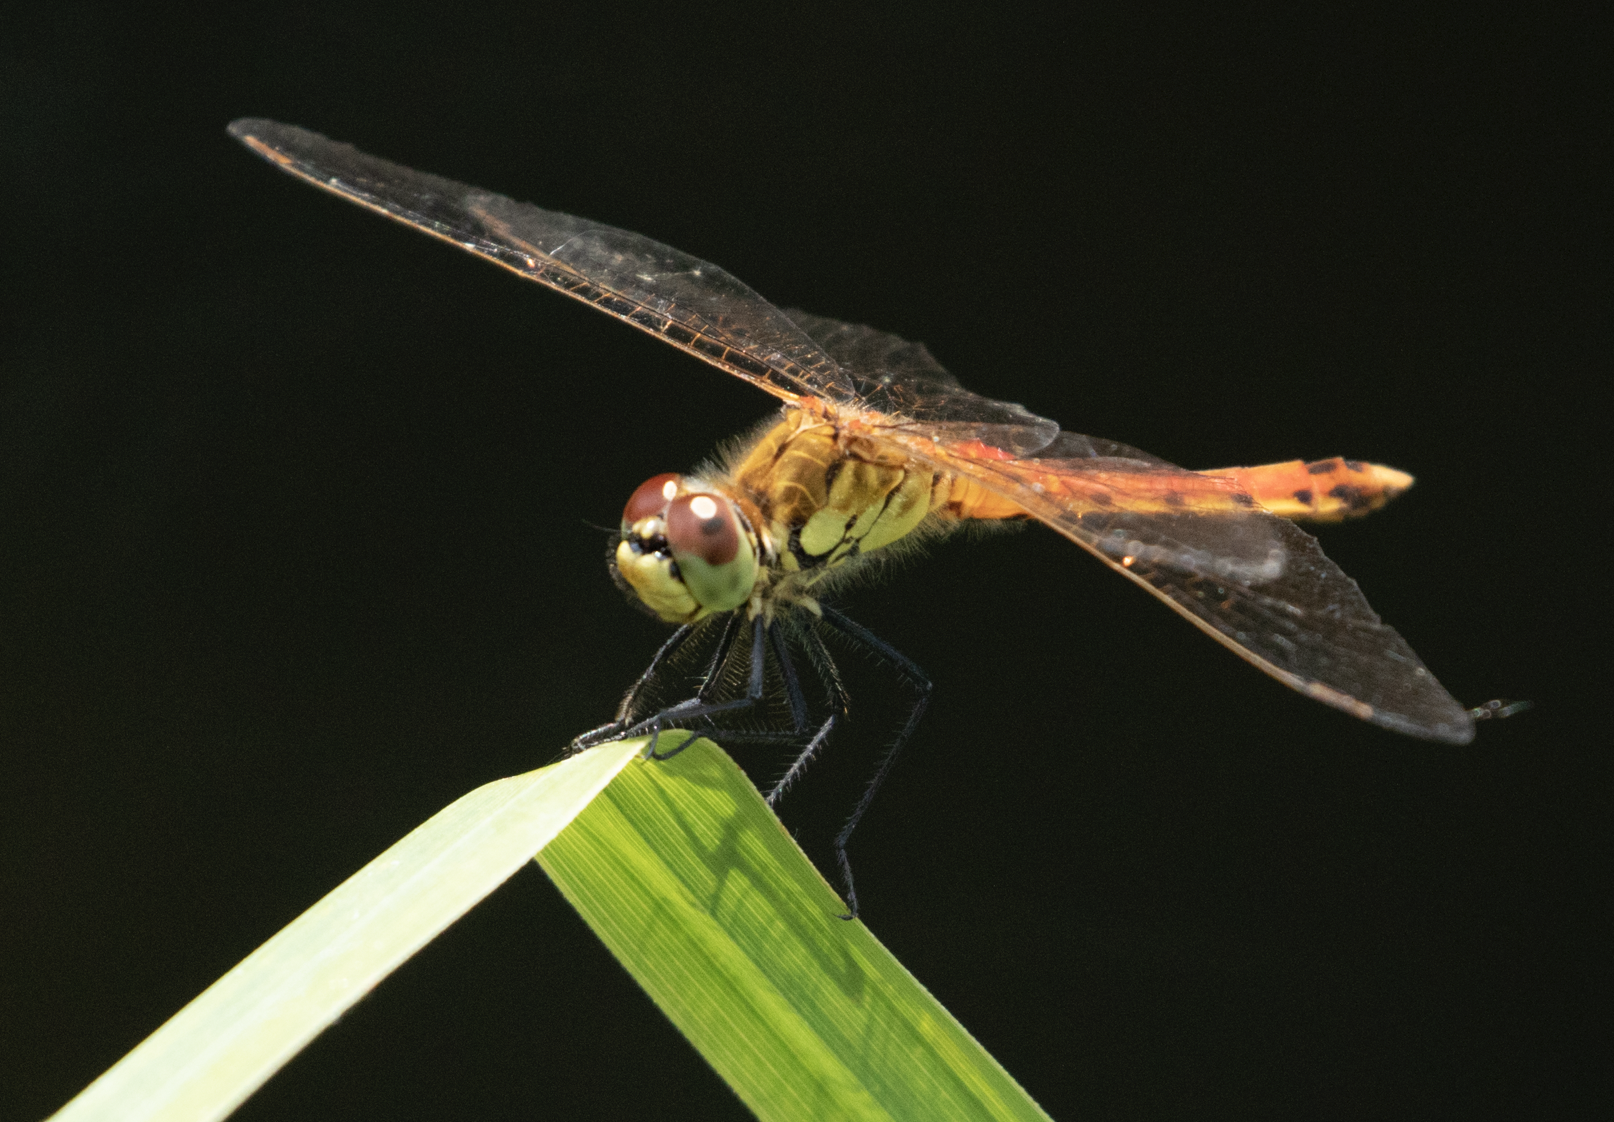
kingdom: Animalia
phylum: Arthropoda
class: Insecta
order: Odonata
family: Libellulidae
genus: Sympetrum
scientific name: Sympetrum depressiusculum
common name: Spotted darter
